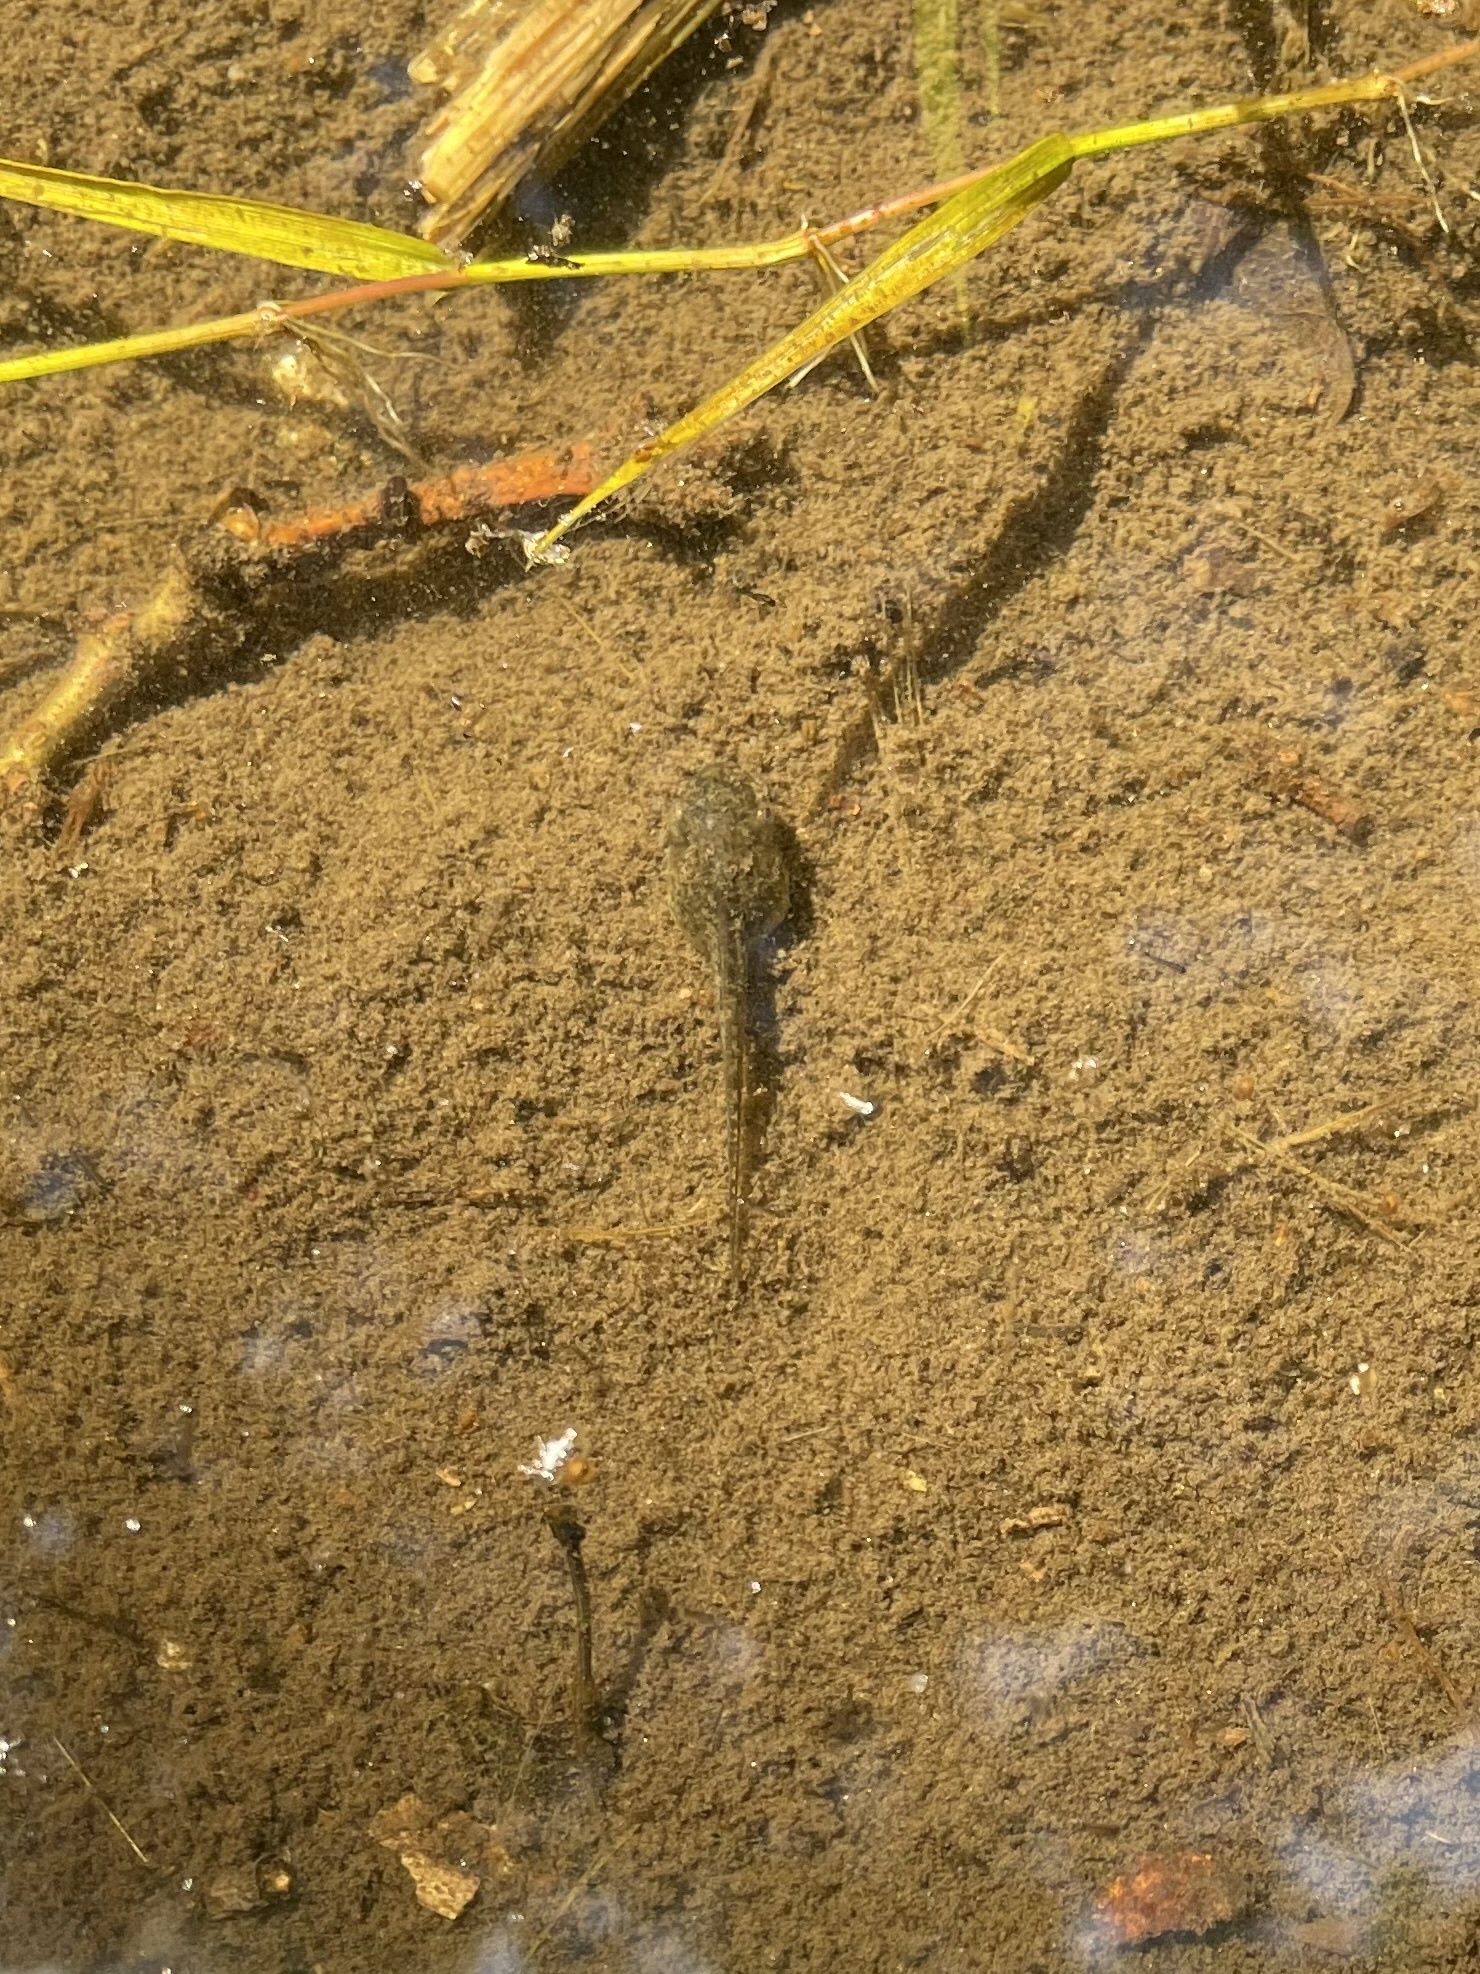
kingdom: Animalia
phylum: Chordata
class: Amphibia
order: Anura
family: Hylidae
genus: Pseudacris
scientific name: Pseudacris regilla
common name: Pacific chorus frog
